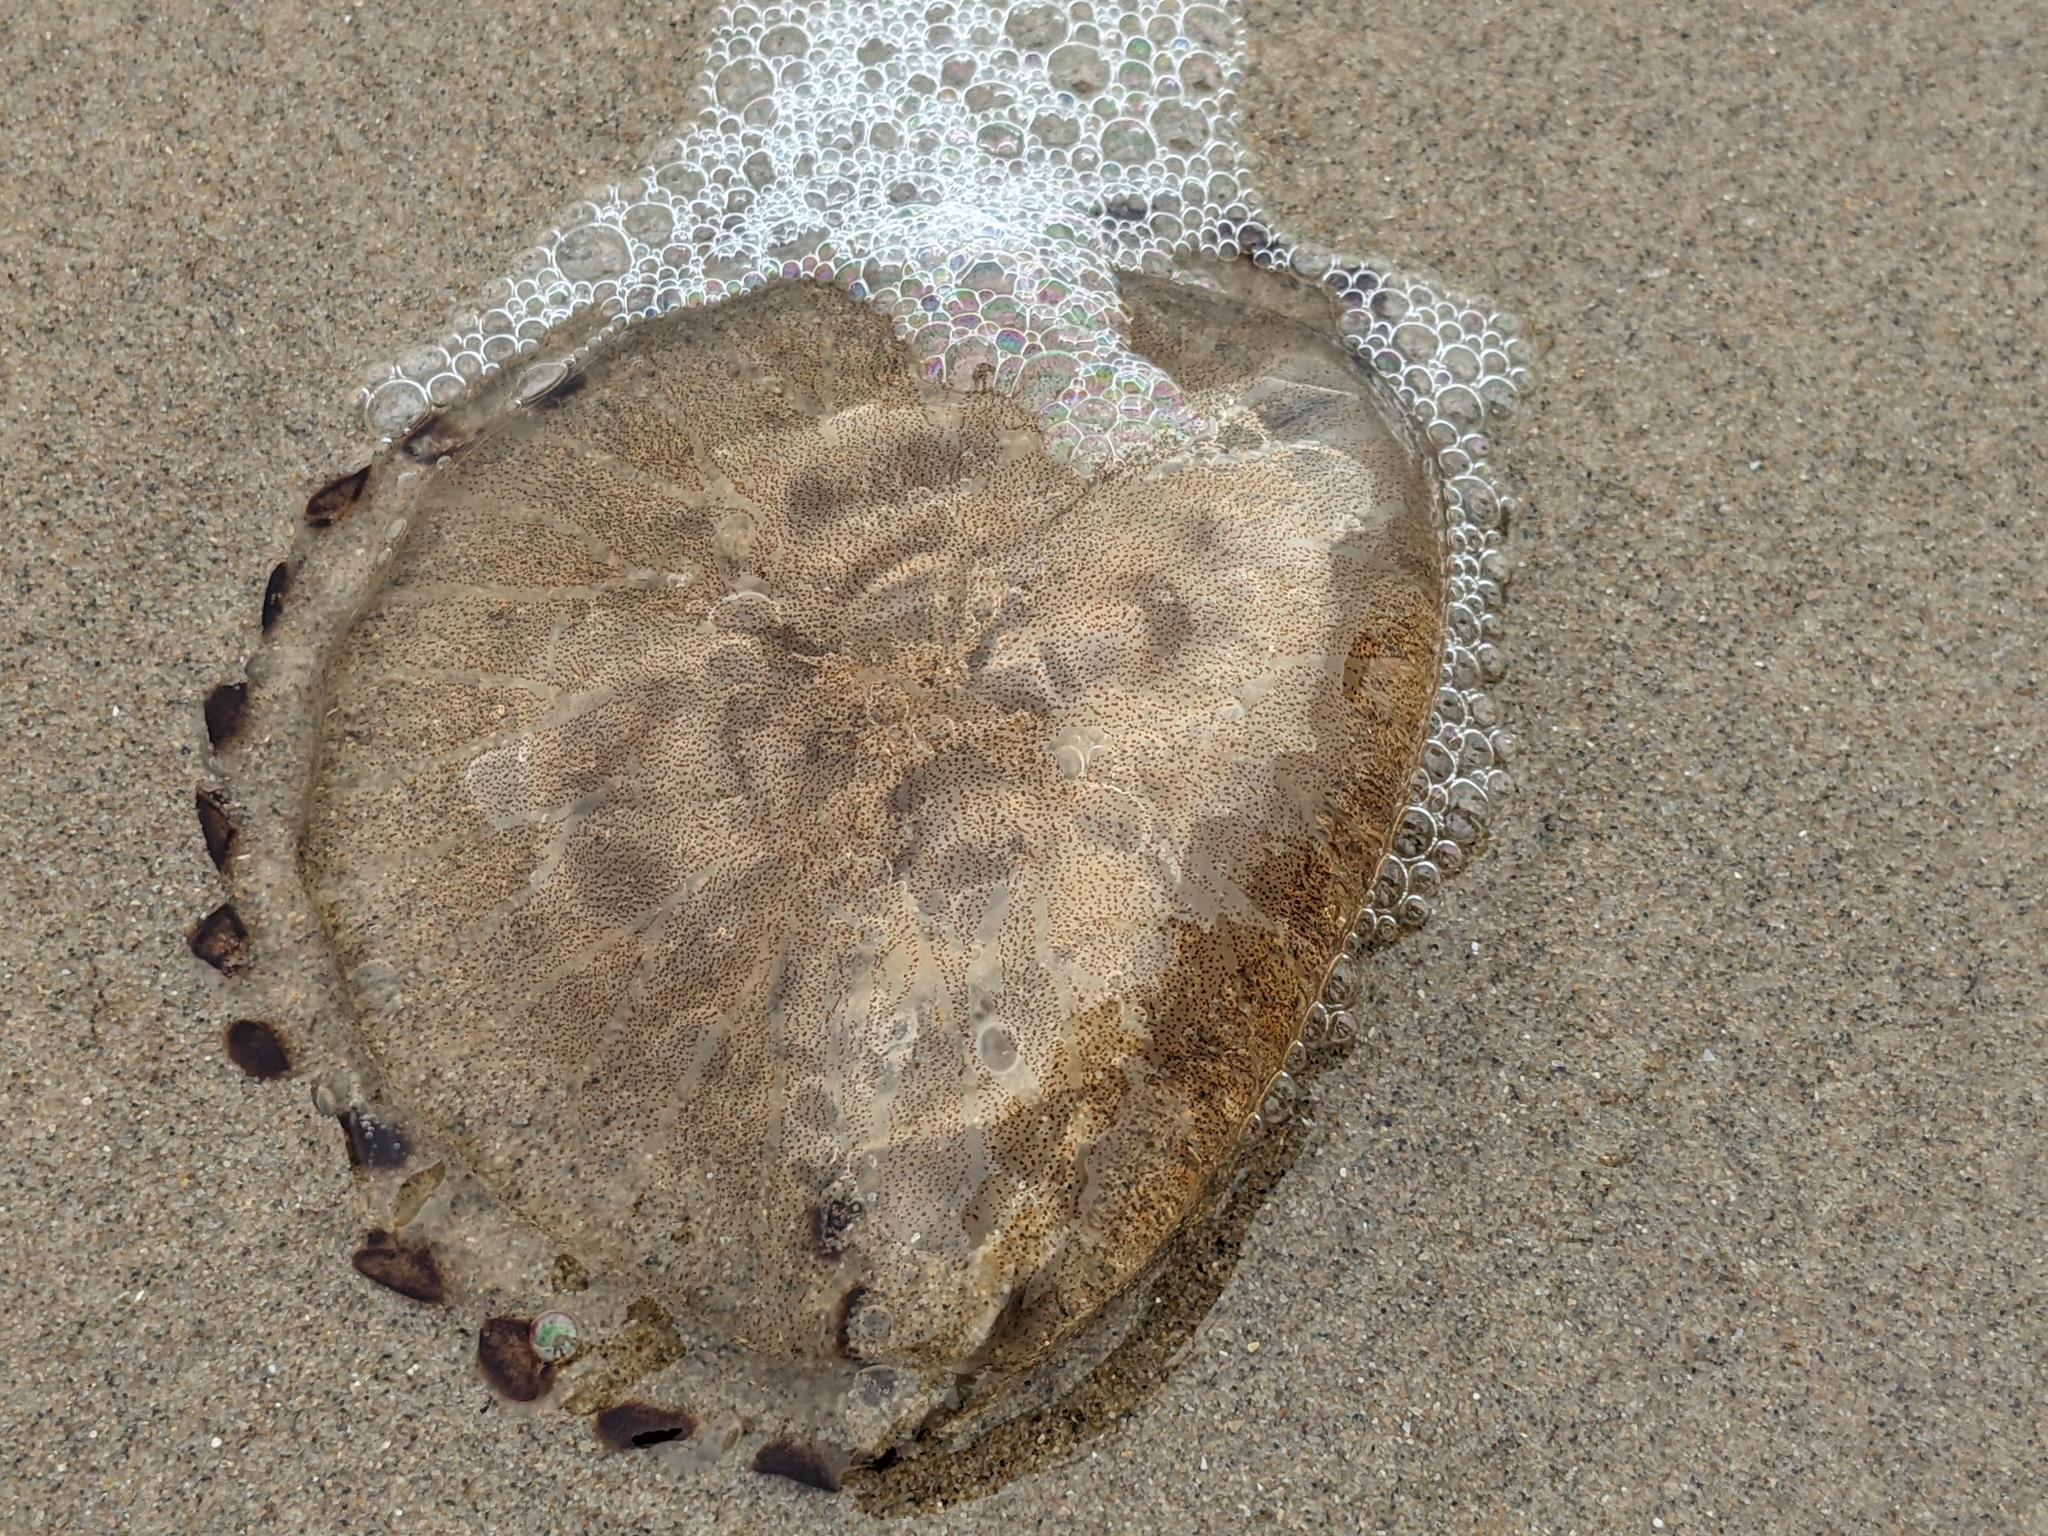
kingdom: Animalia
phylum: Cnidaria
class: Scyphozoa
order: Semaeostomeae
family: Pelagiidae
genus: Chrysaora
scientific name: Chrysaora hysoscella
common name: Compass jellyfish
